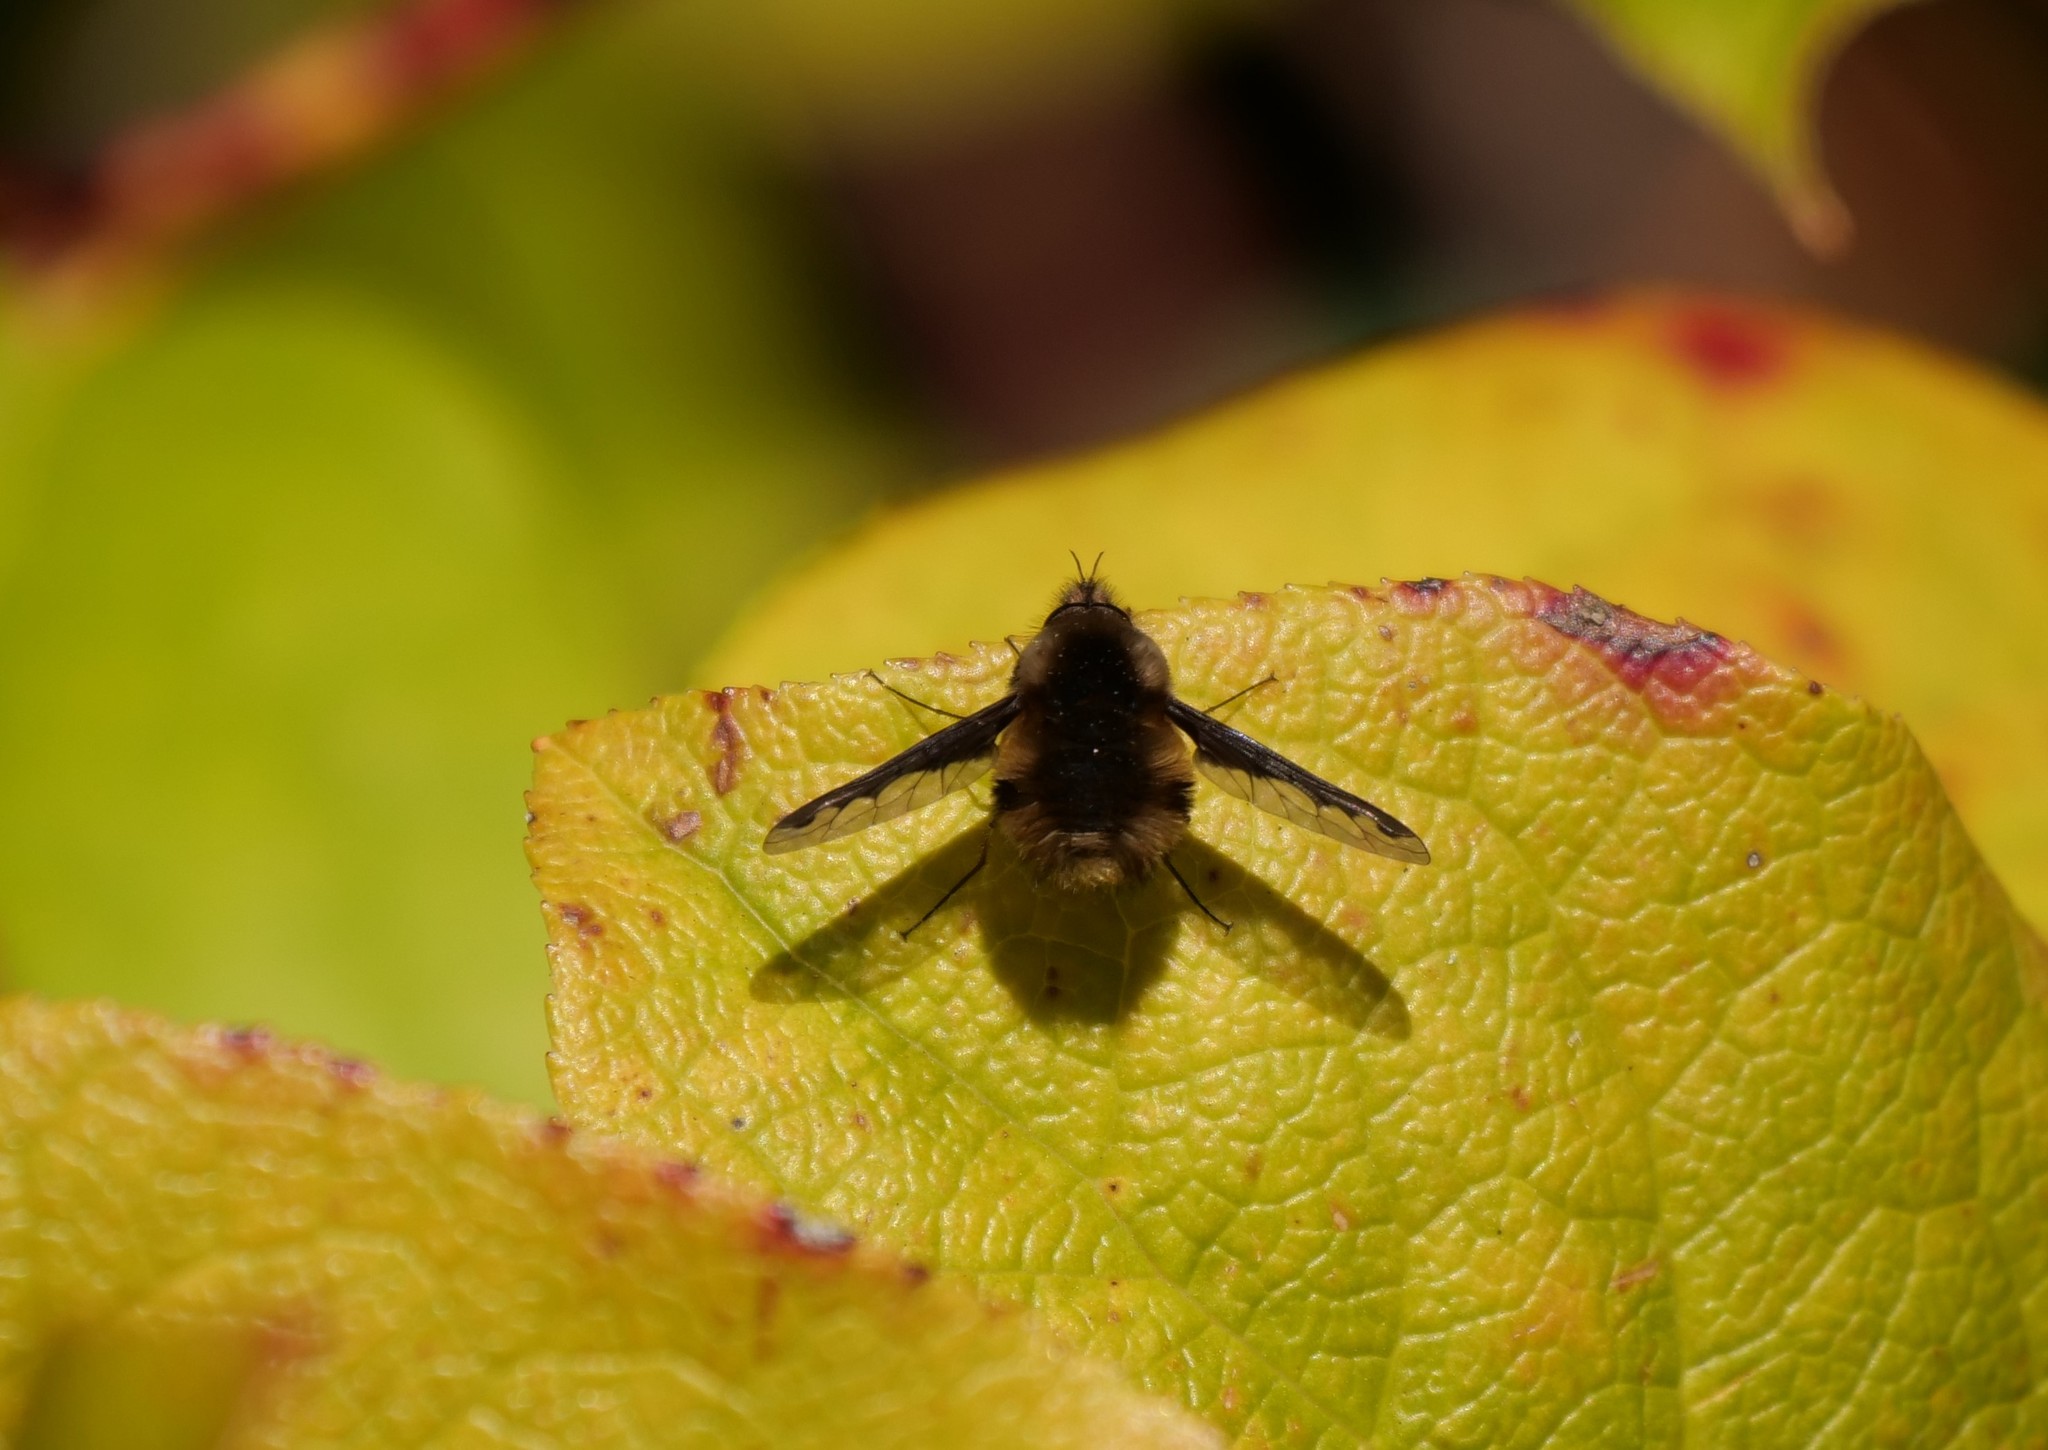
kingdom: Animalia
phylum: Arthropoda
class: Insecta
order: Diptera
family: Bombyliidae
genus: Bombylius
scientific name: Bombylius major
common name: Bee fly
